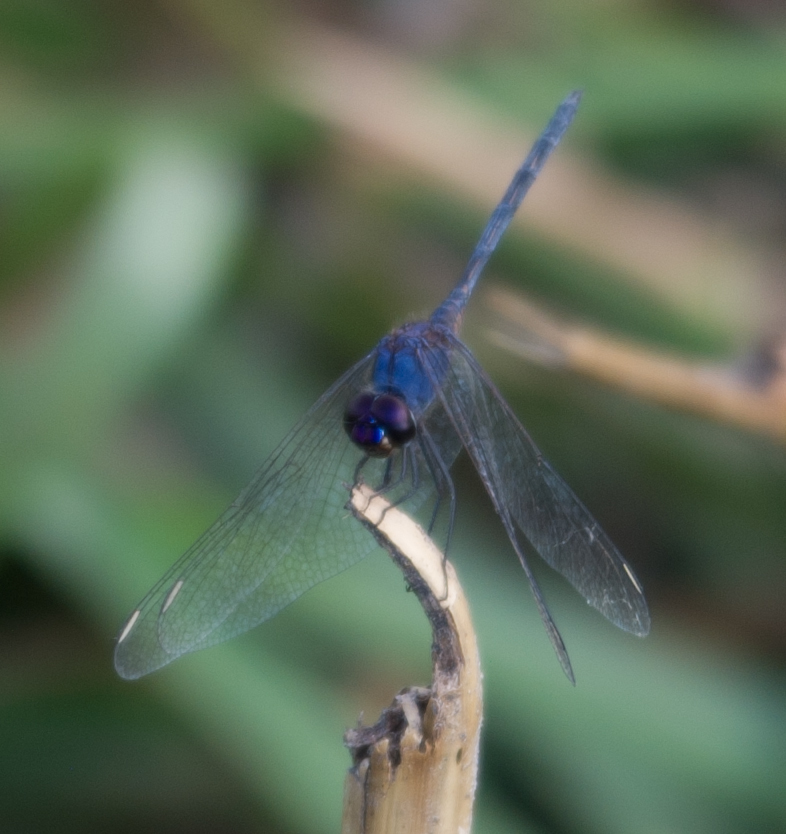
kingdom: Animalia
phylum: Arthropoda
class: Insecta
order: Odonata
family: Libellulidae
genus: Trithemis
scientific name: Trithemis hecate
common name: Silhouette dropwing
